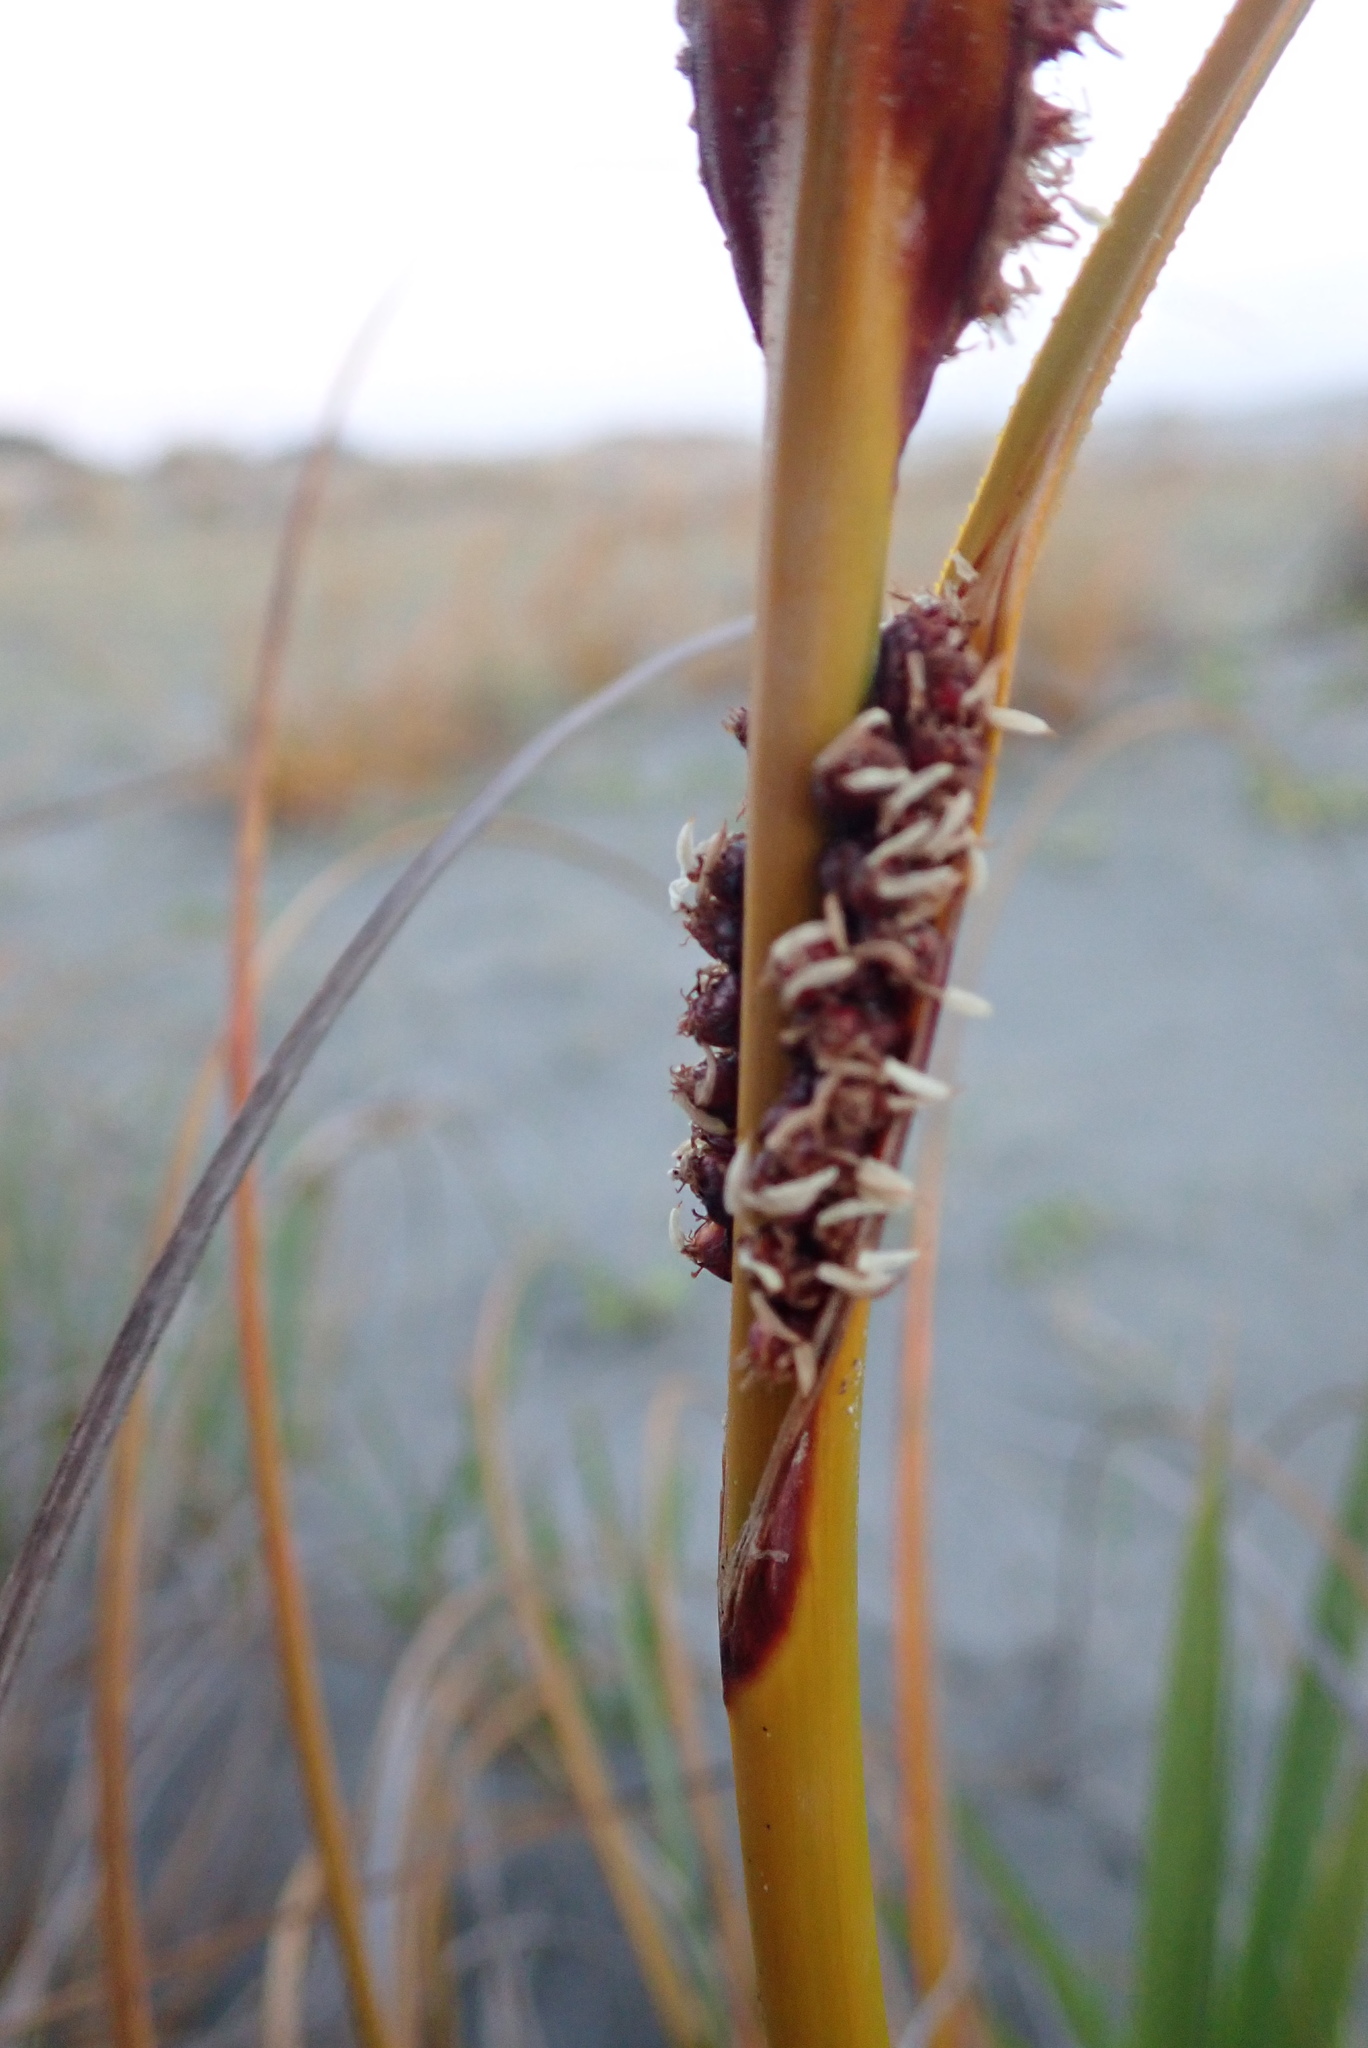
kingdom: Plantae
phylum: Tracheophyta
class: Liliopsida
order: Poales
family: Cyperaceae
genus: Ficinia
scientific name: Ficinia spiralis
